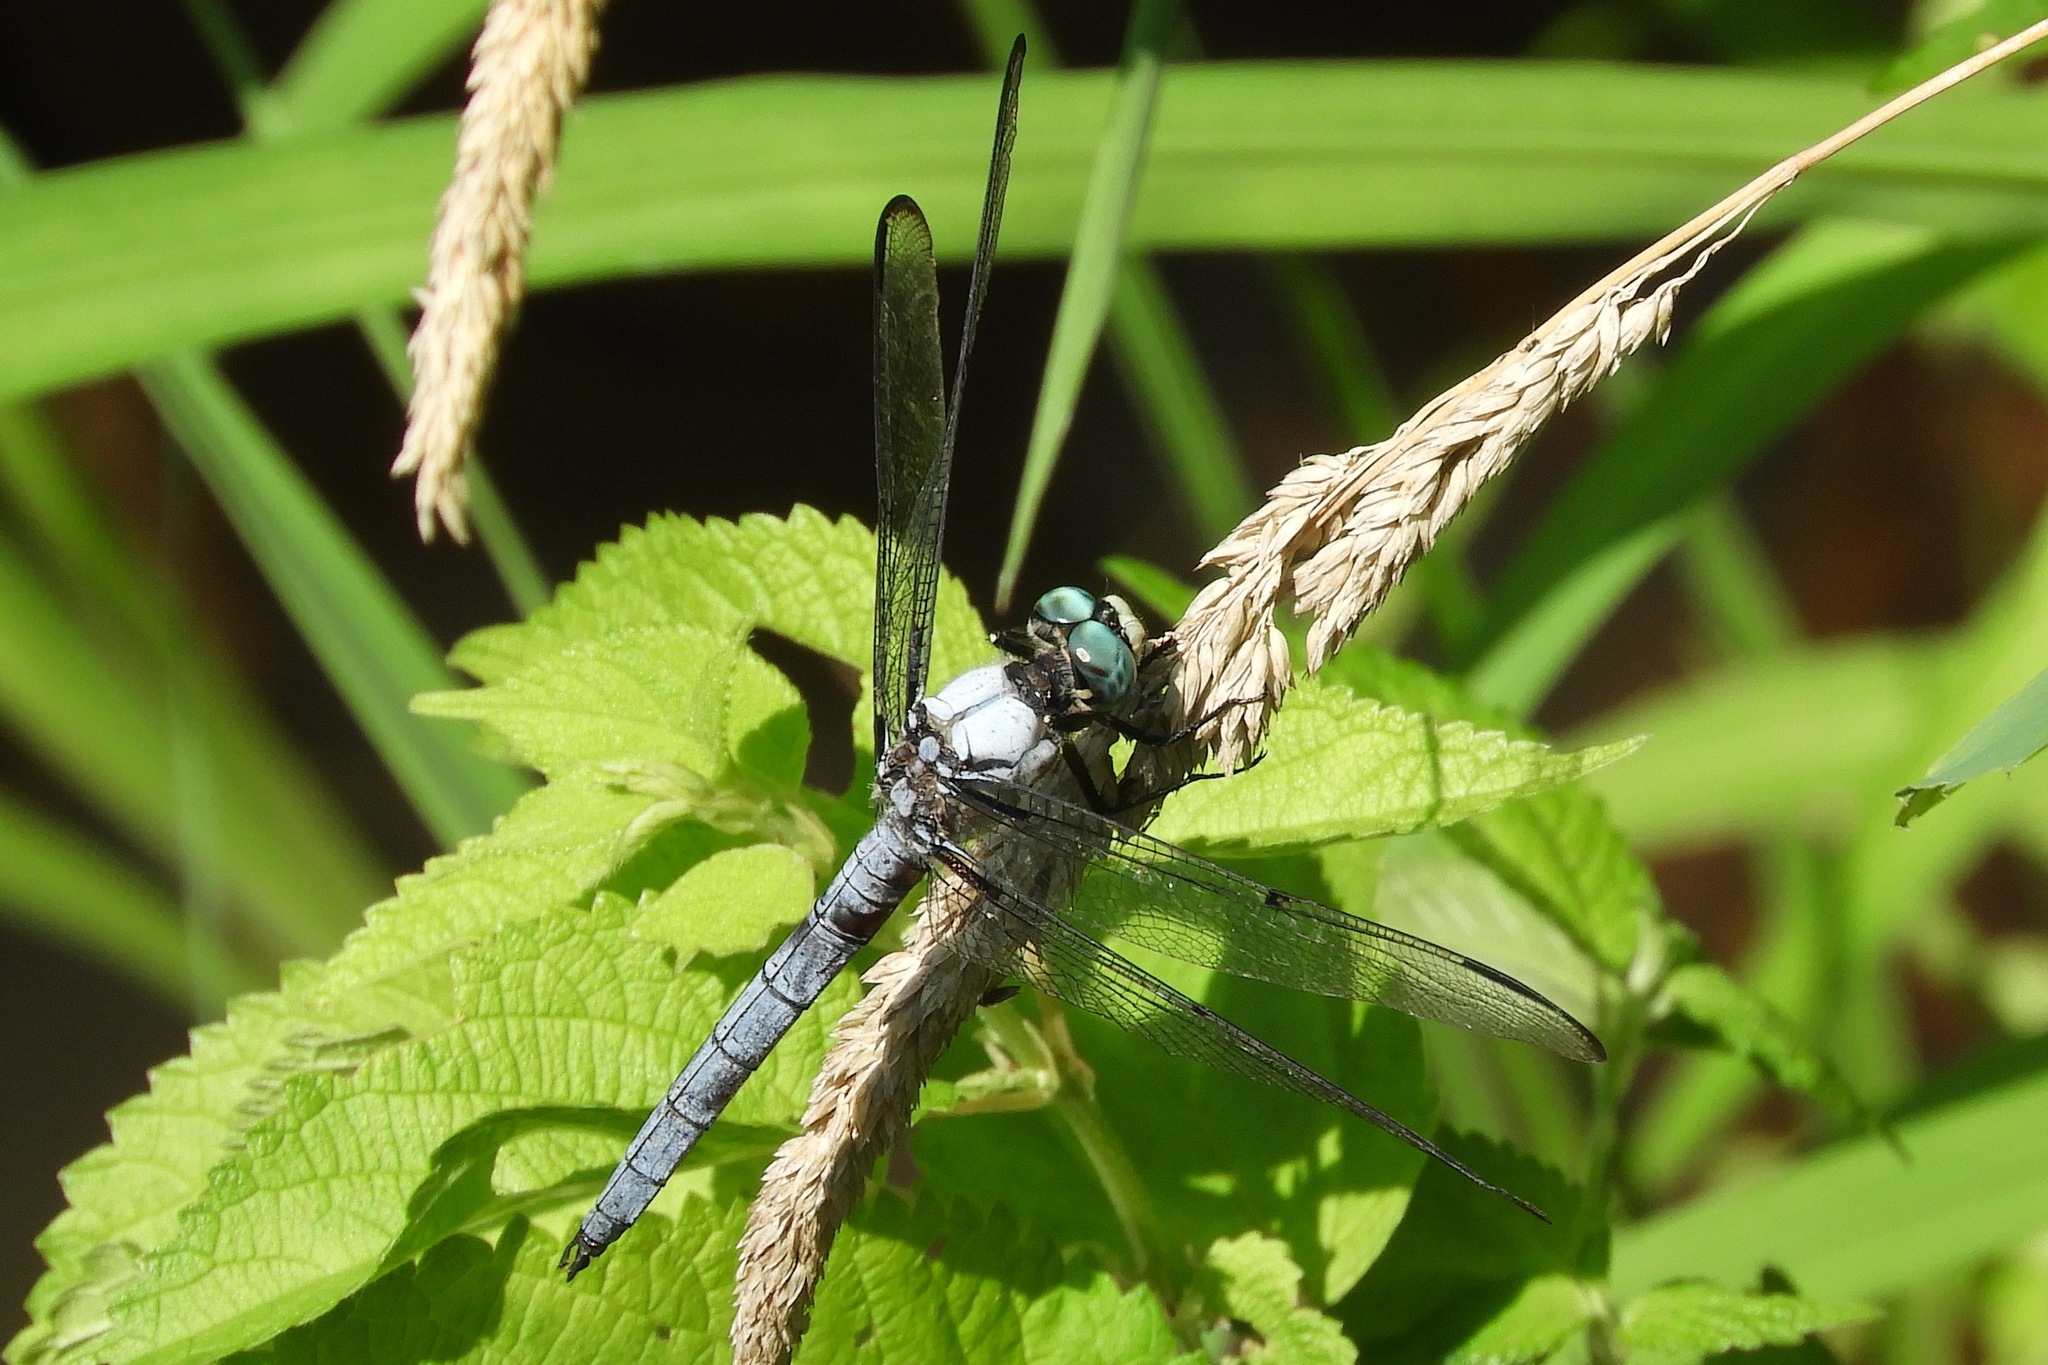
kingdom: Animalia
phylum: Arthropoda
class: Insecta
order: Odonata
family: Libellulidae
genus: Libellula
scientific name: Libellula vibrans
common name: Great blue skimmer
